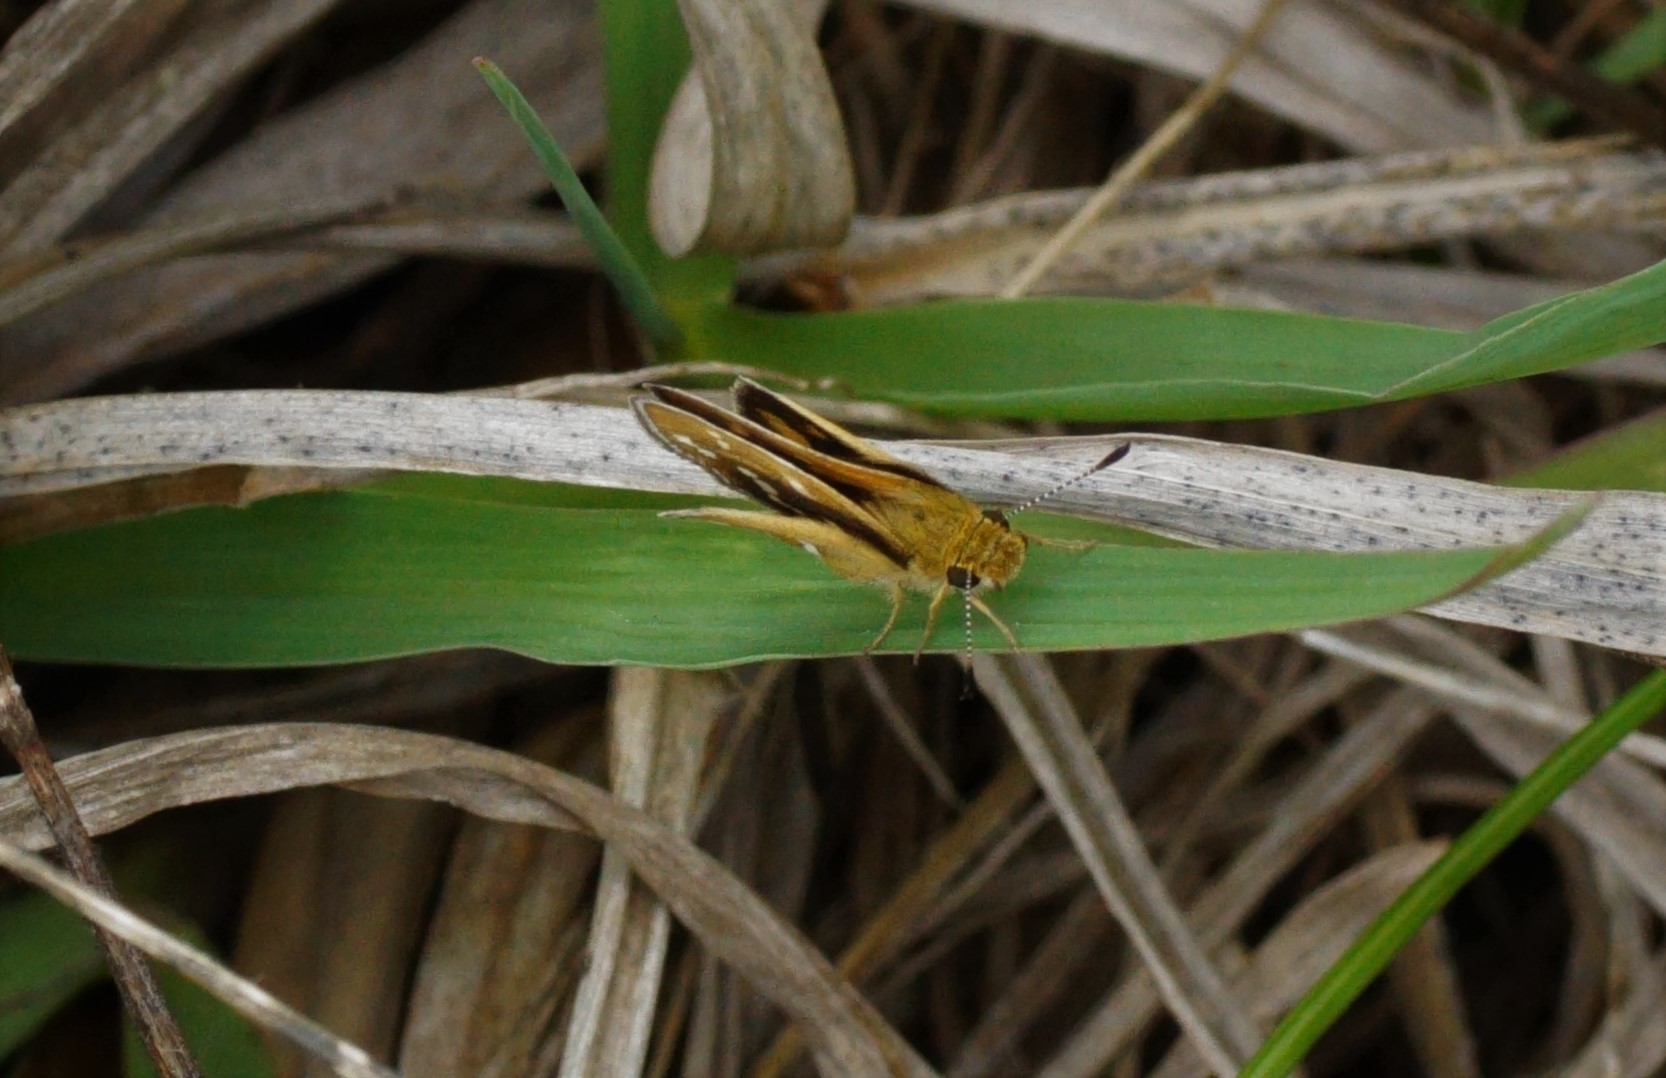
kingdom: Animalia
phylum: Arthropoda
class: Insecta
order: Lepidoptera
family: Hesperiidae
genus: Taractrocera
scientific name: Taractrocera papyria
